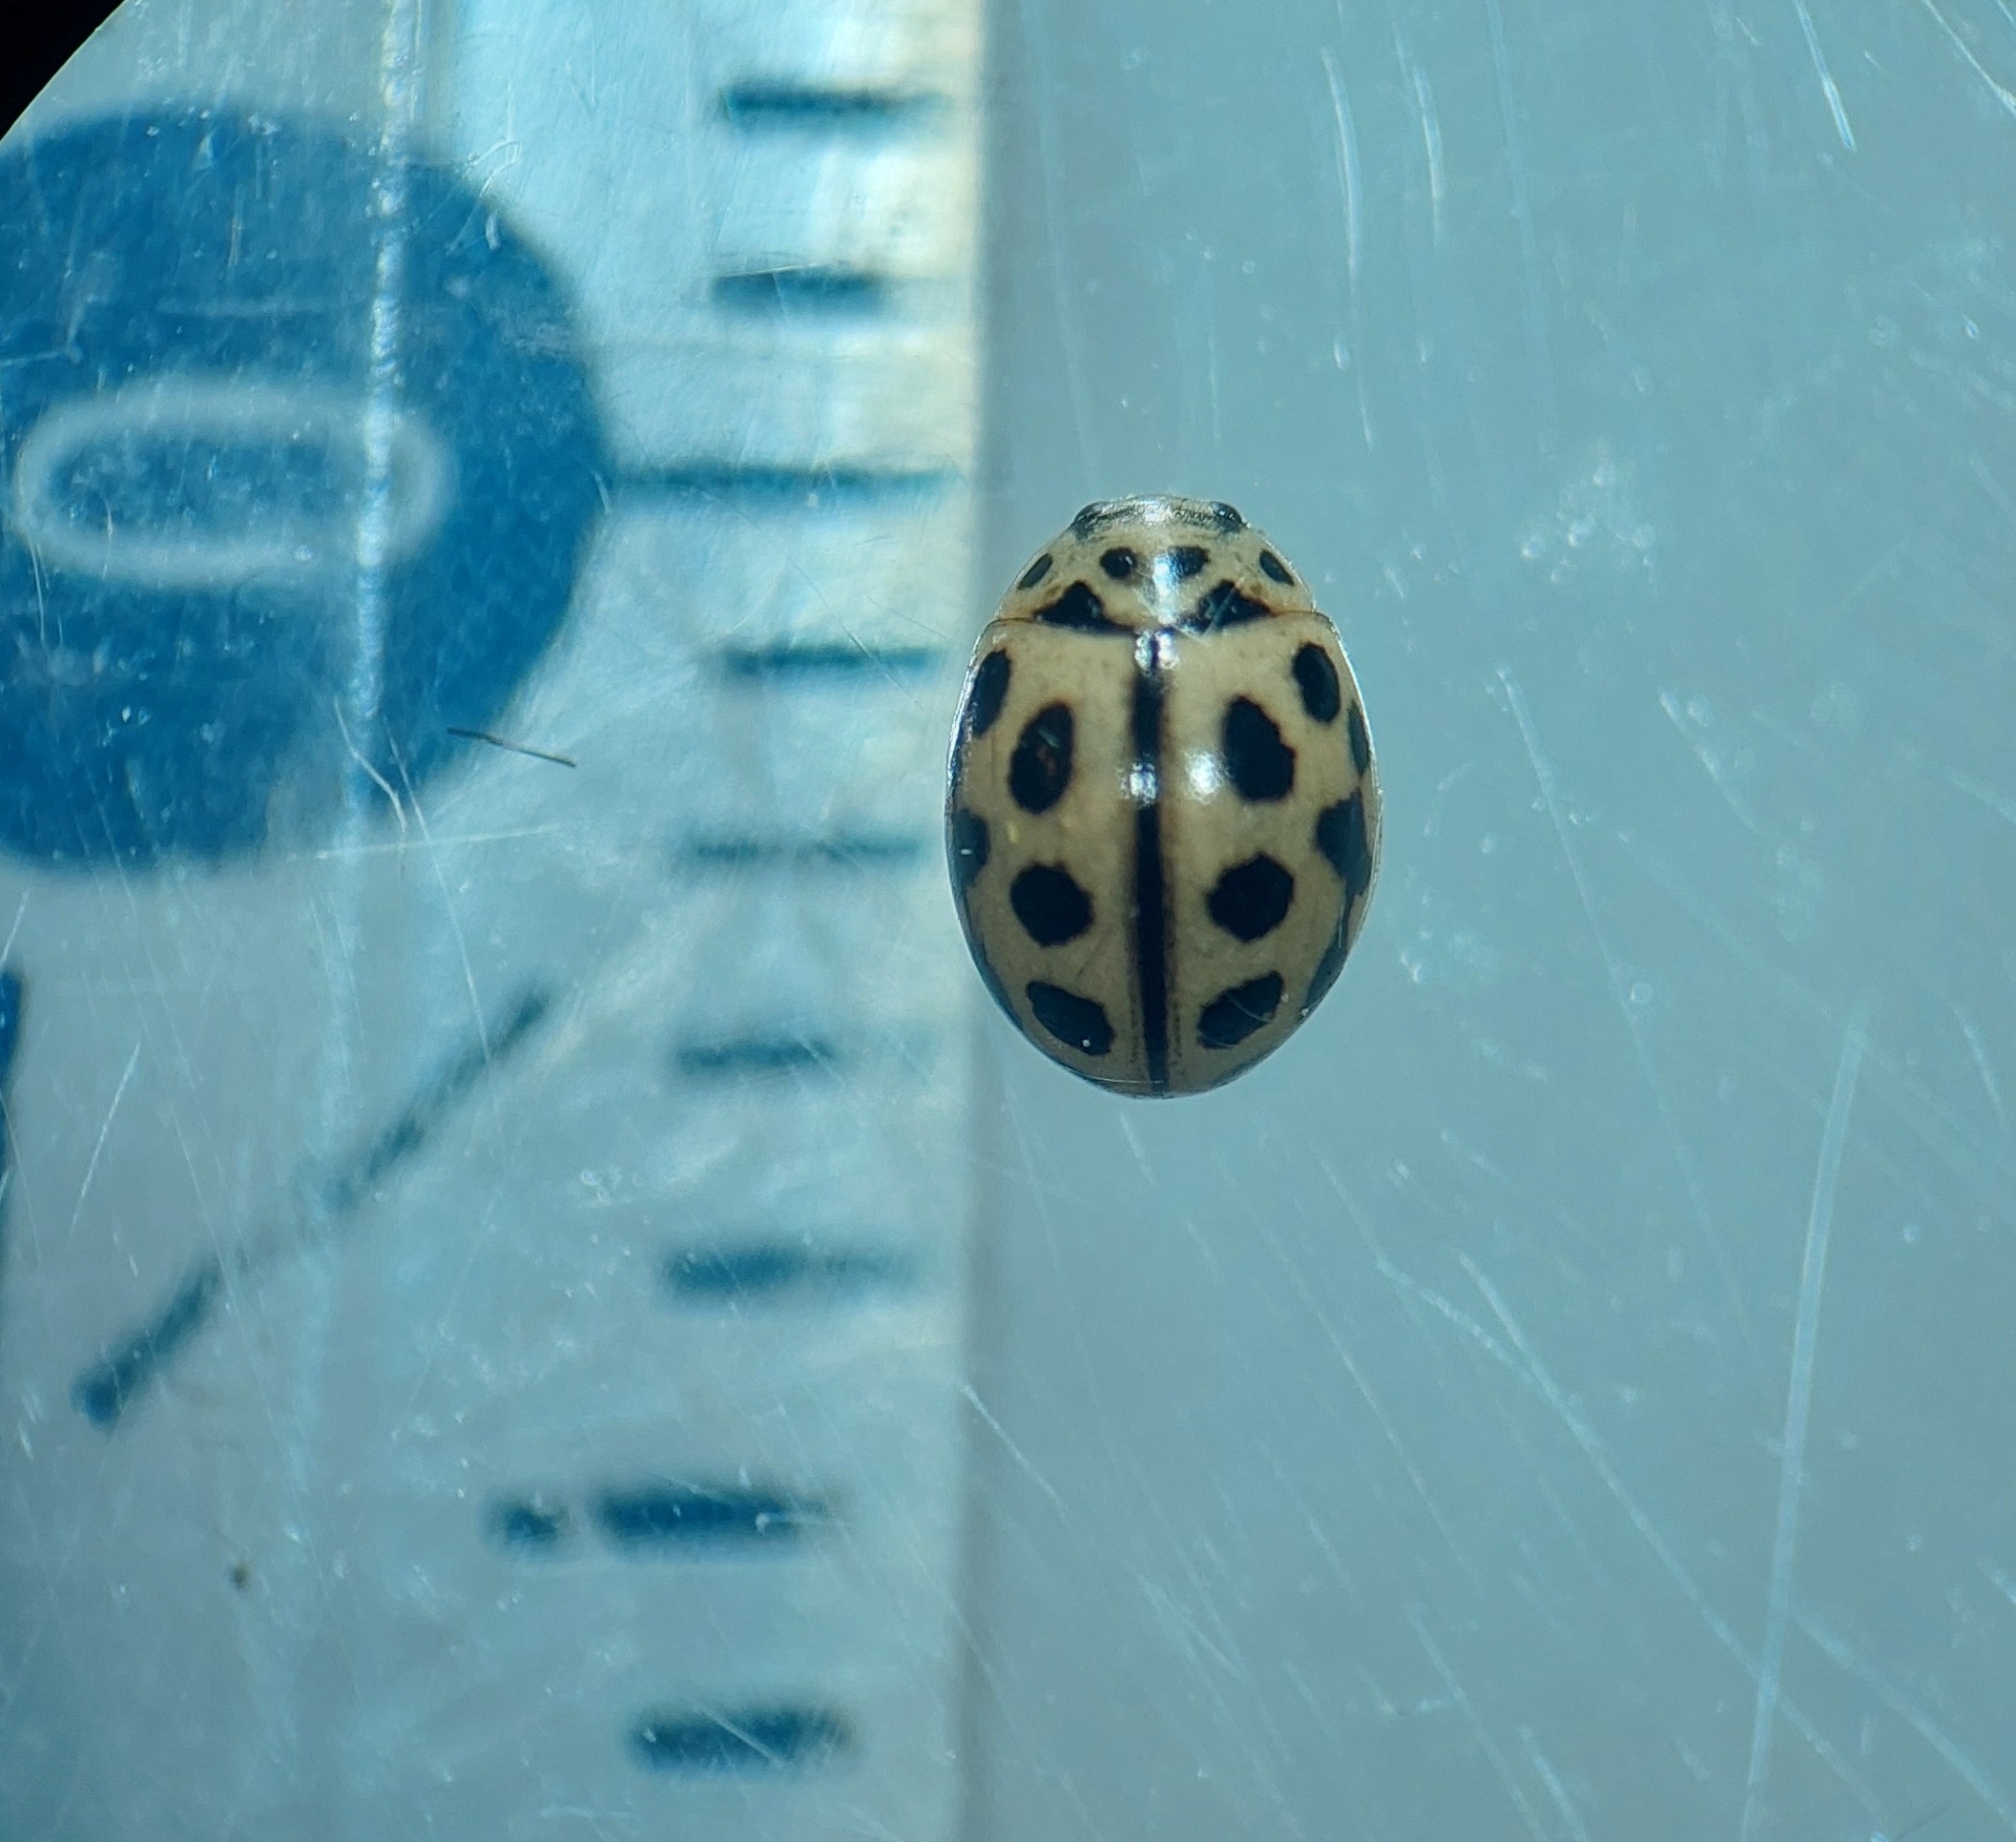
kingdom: Animalia
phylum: Arthropoda
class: Insecta
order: Coleoptera
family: Coccinellidae
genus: Tytthaspis
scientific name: Tytthaspis sedecimpunctata
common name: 16-spot ladybird
